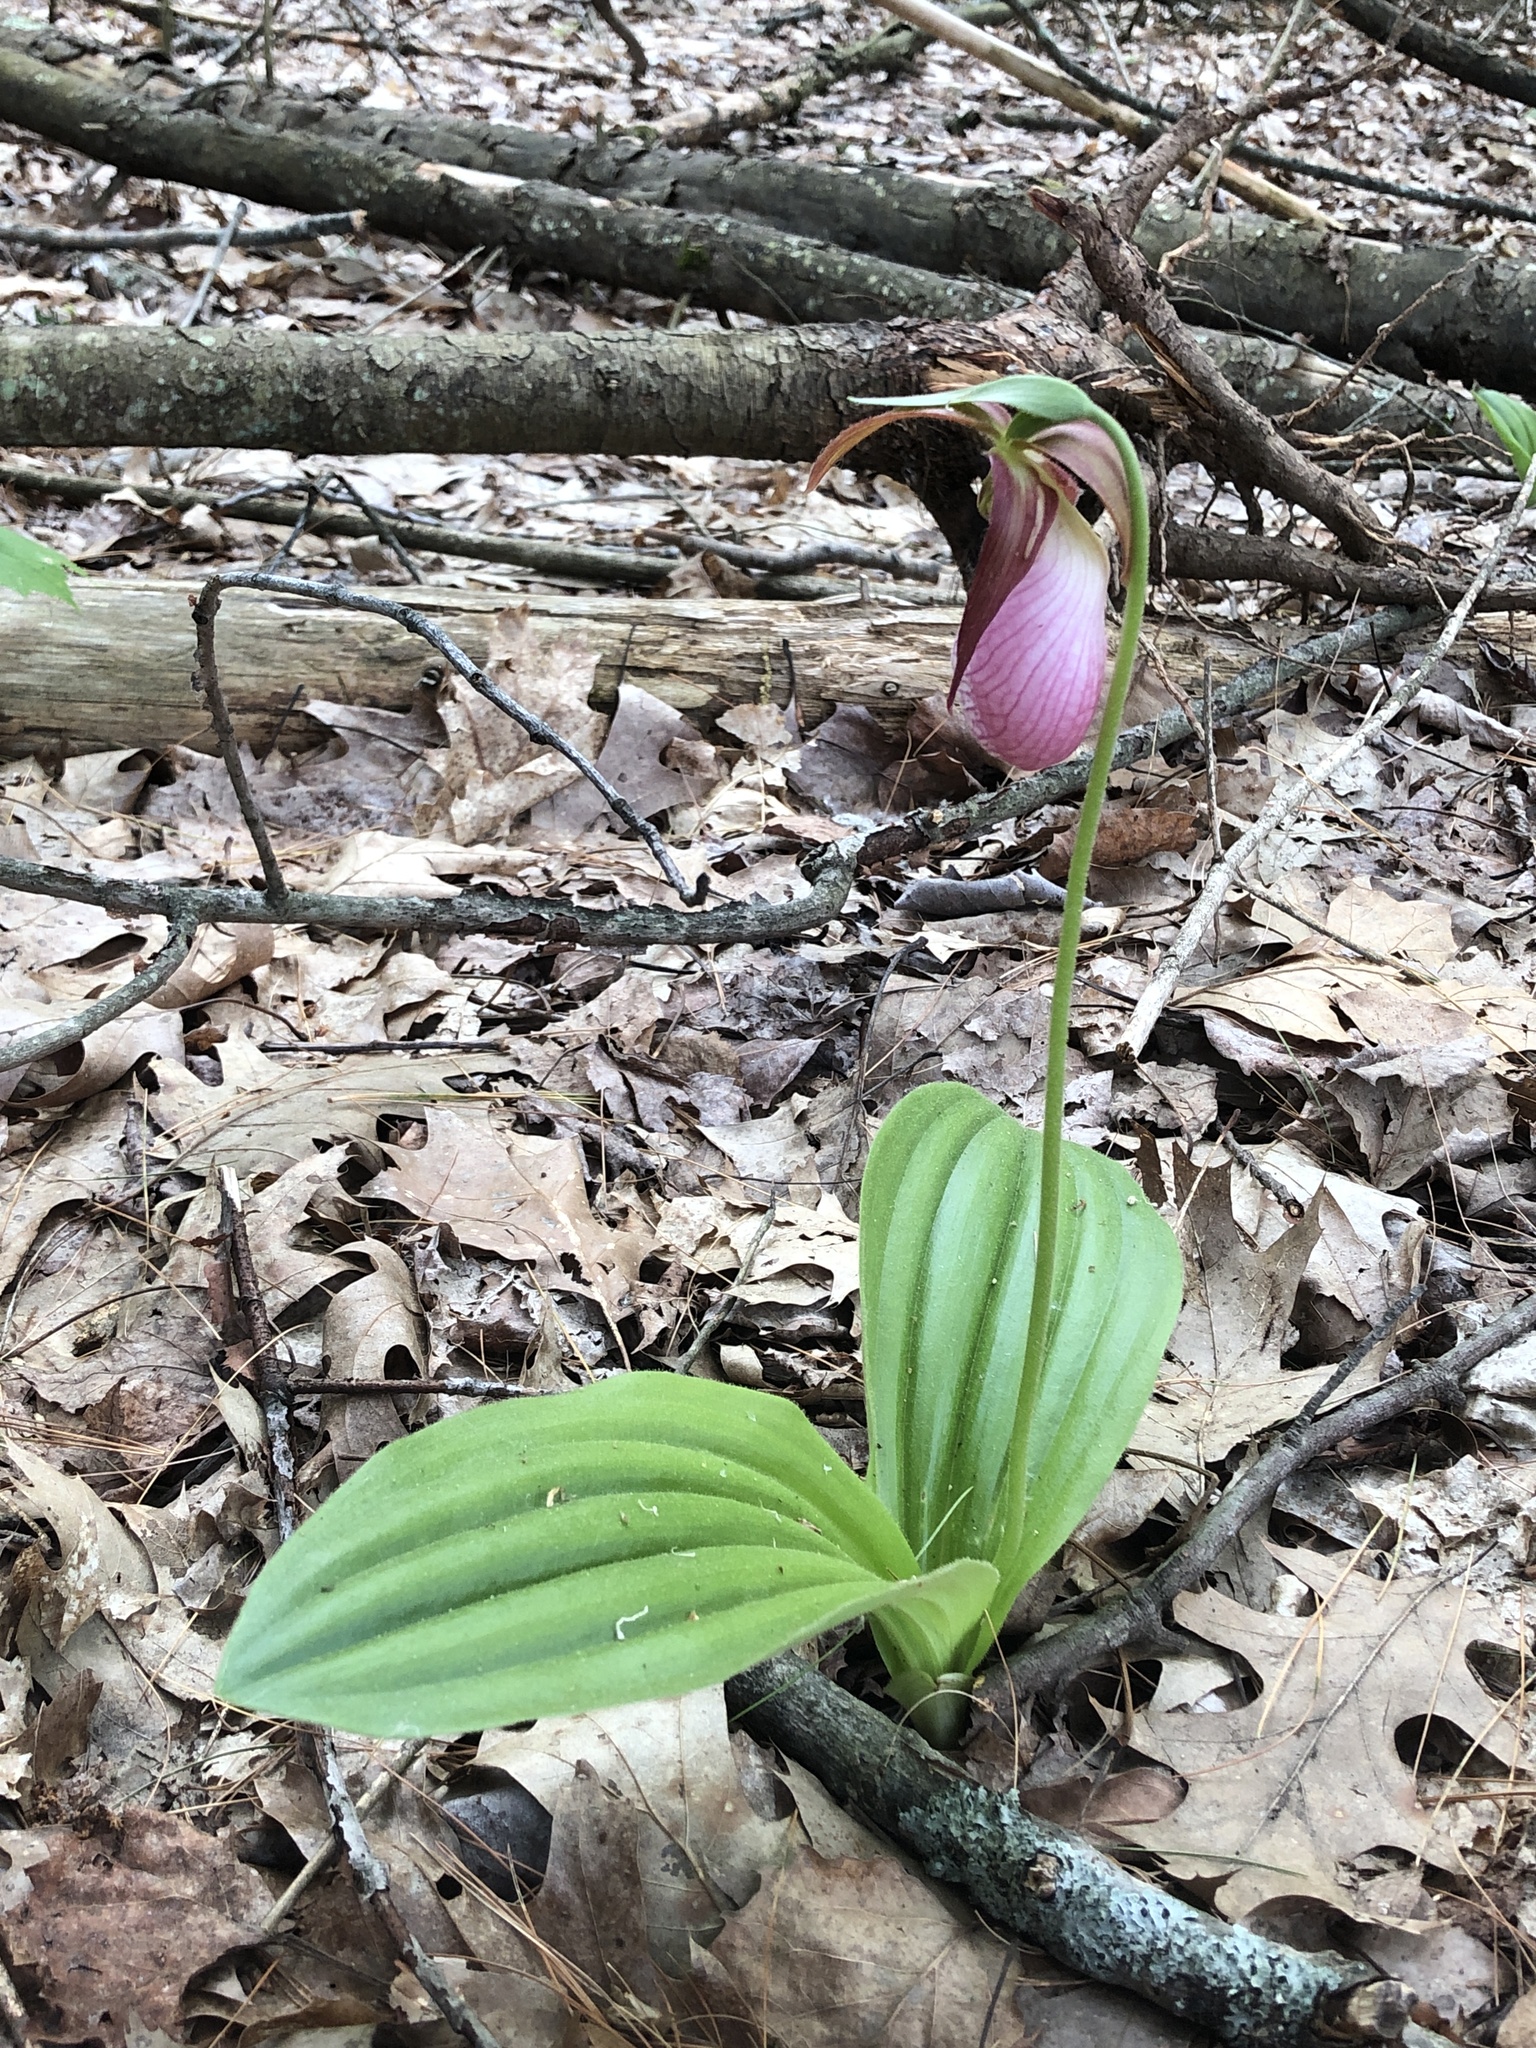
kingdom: Plantae
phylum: Tracheophyta
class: Liliopsida
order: Asparagales
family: Orchidaceae
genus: Cypripedium
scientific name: Cypripedium acaule
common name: Pink lady's-slipper
